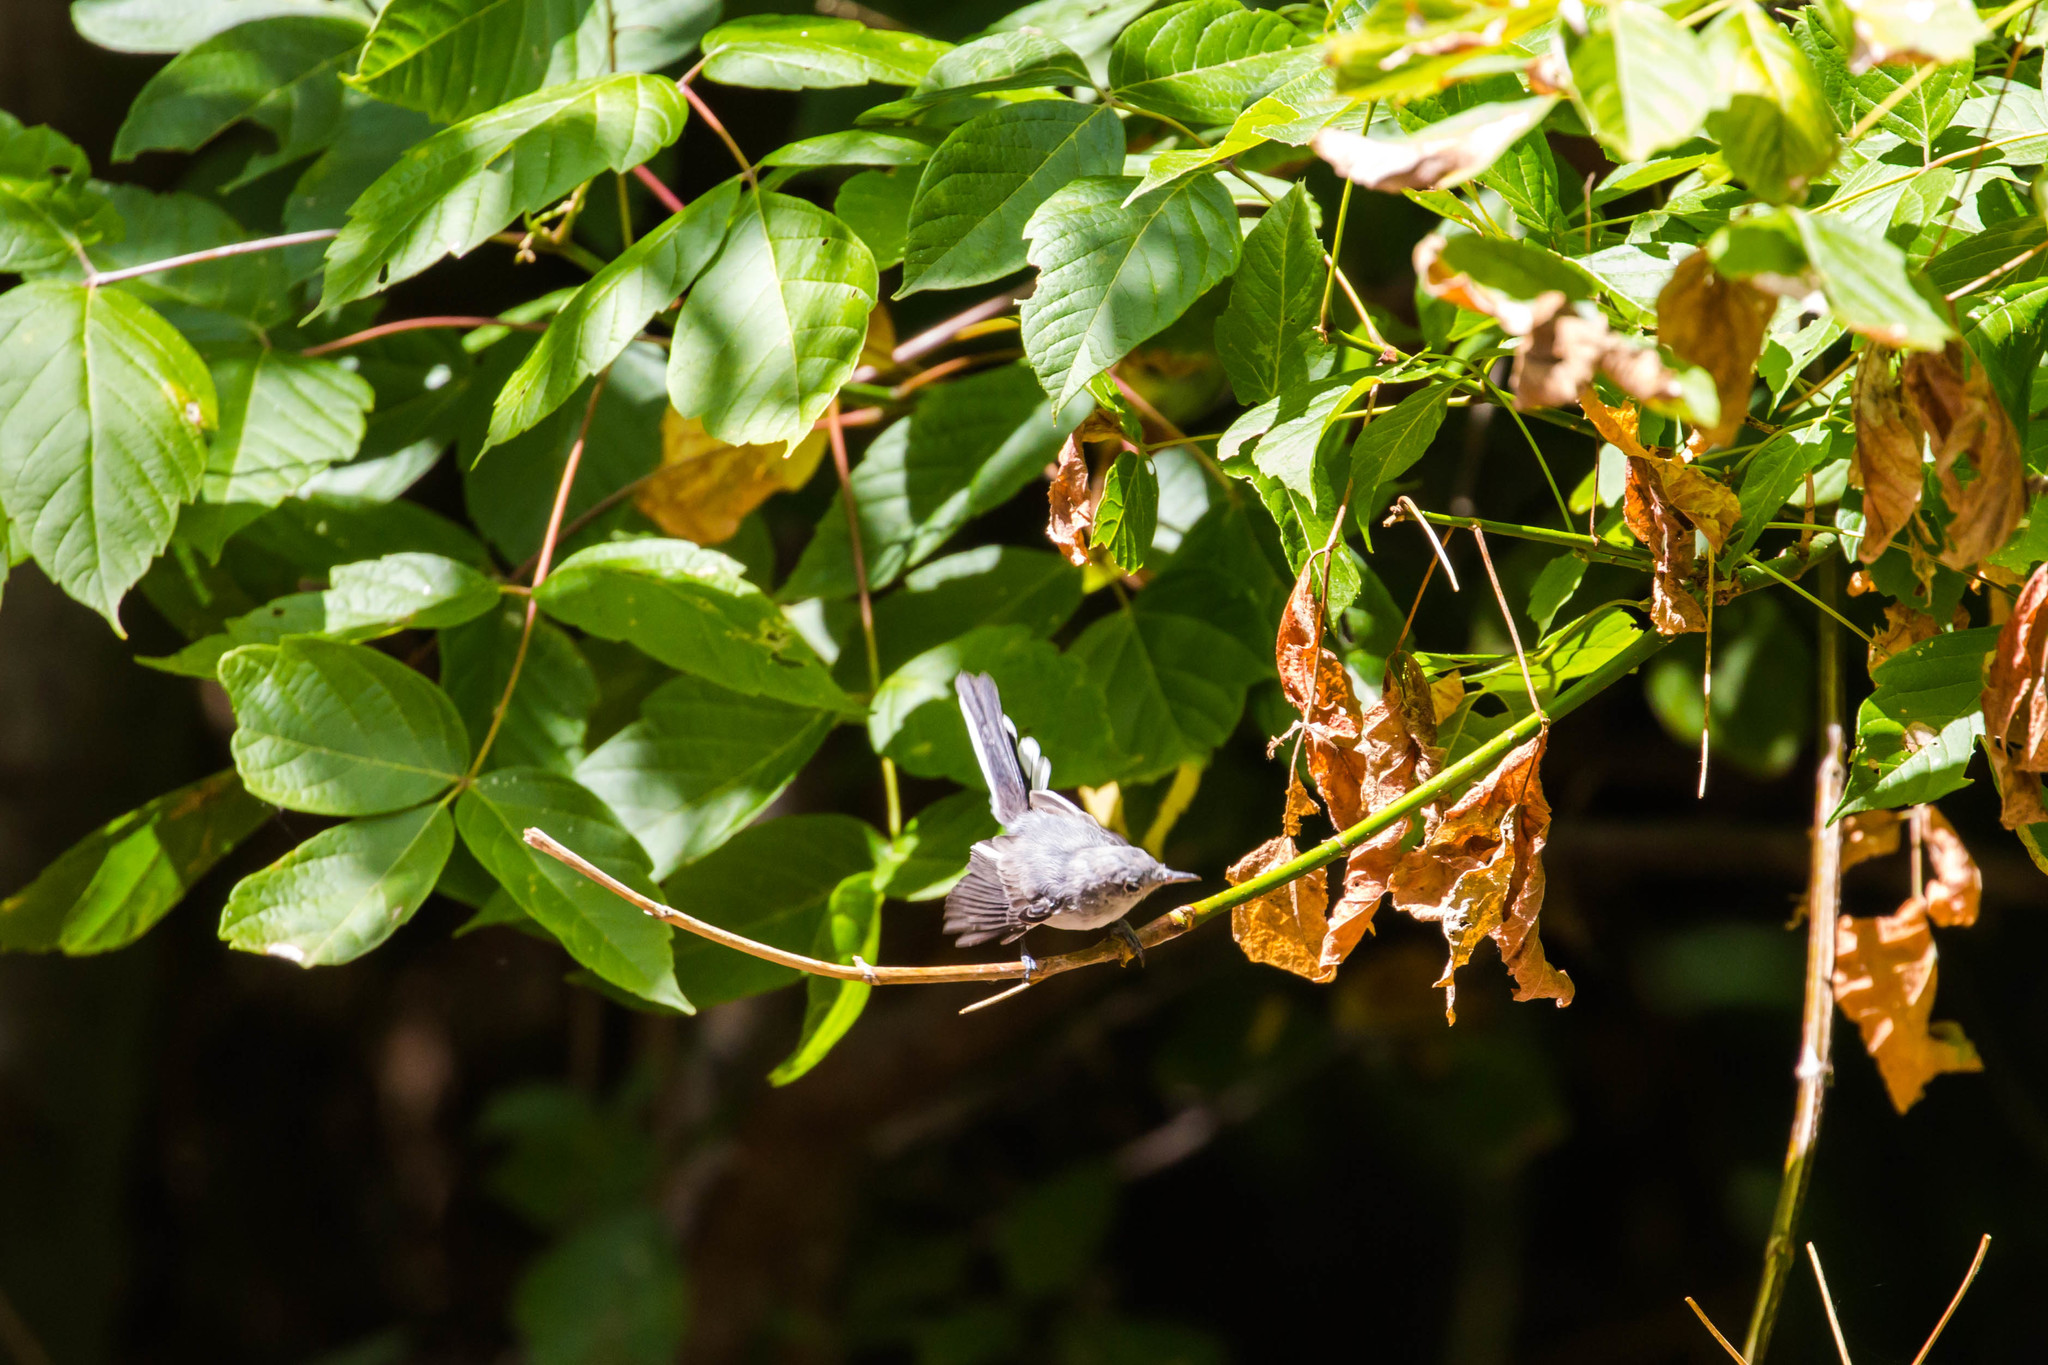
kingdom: Animalia
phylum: Chordata
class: Aves
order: Passeriformes
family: Polioptilidae
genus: Polioptila
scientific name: Polioptila caerulea
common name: Blue-gray gnatcatcher
